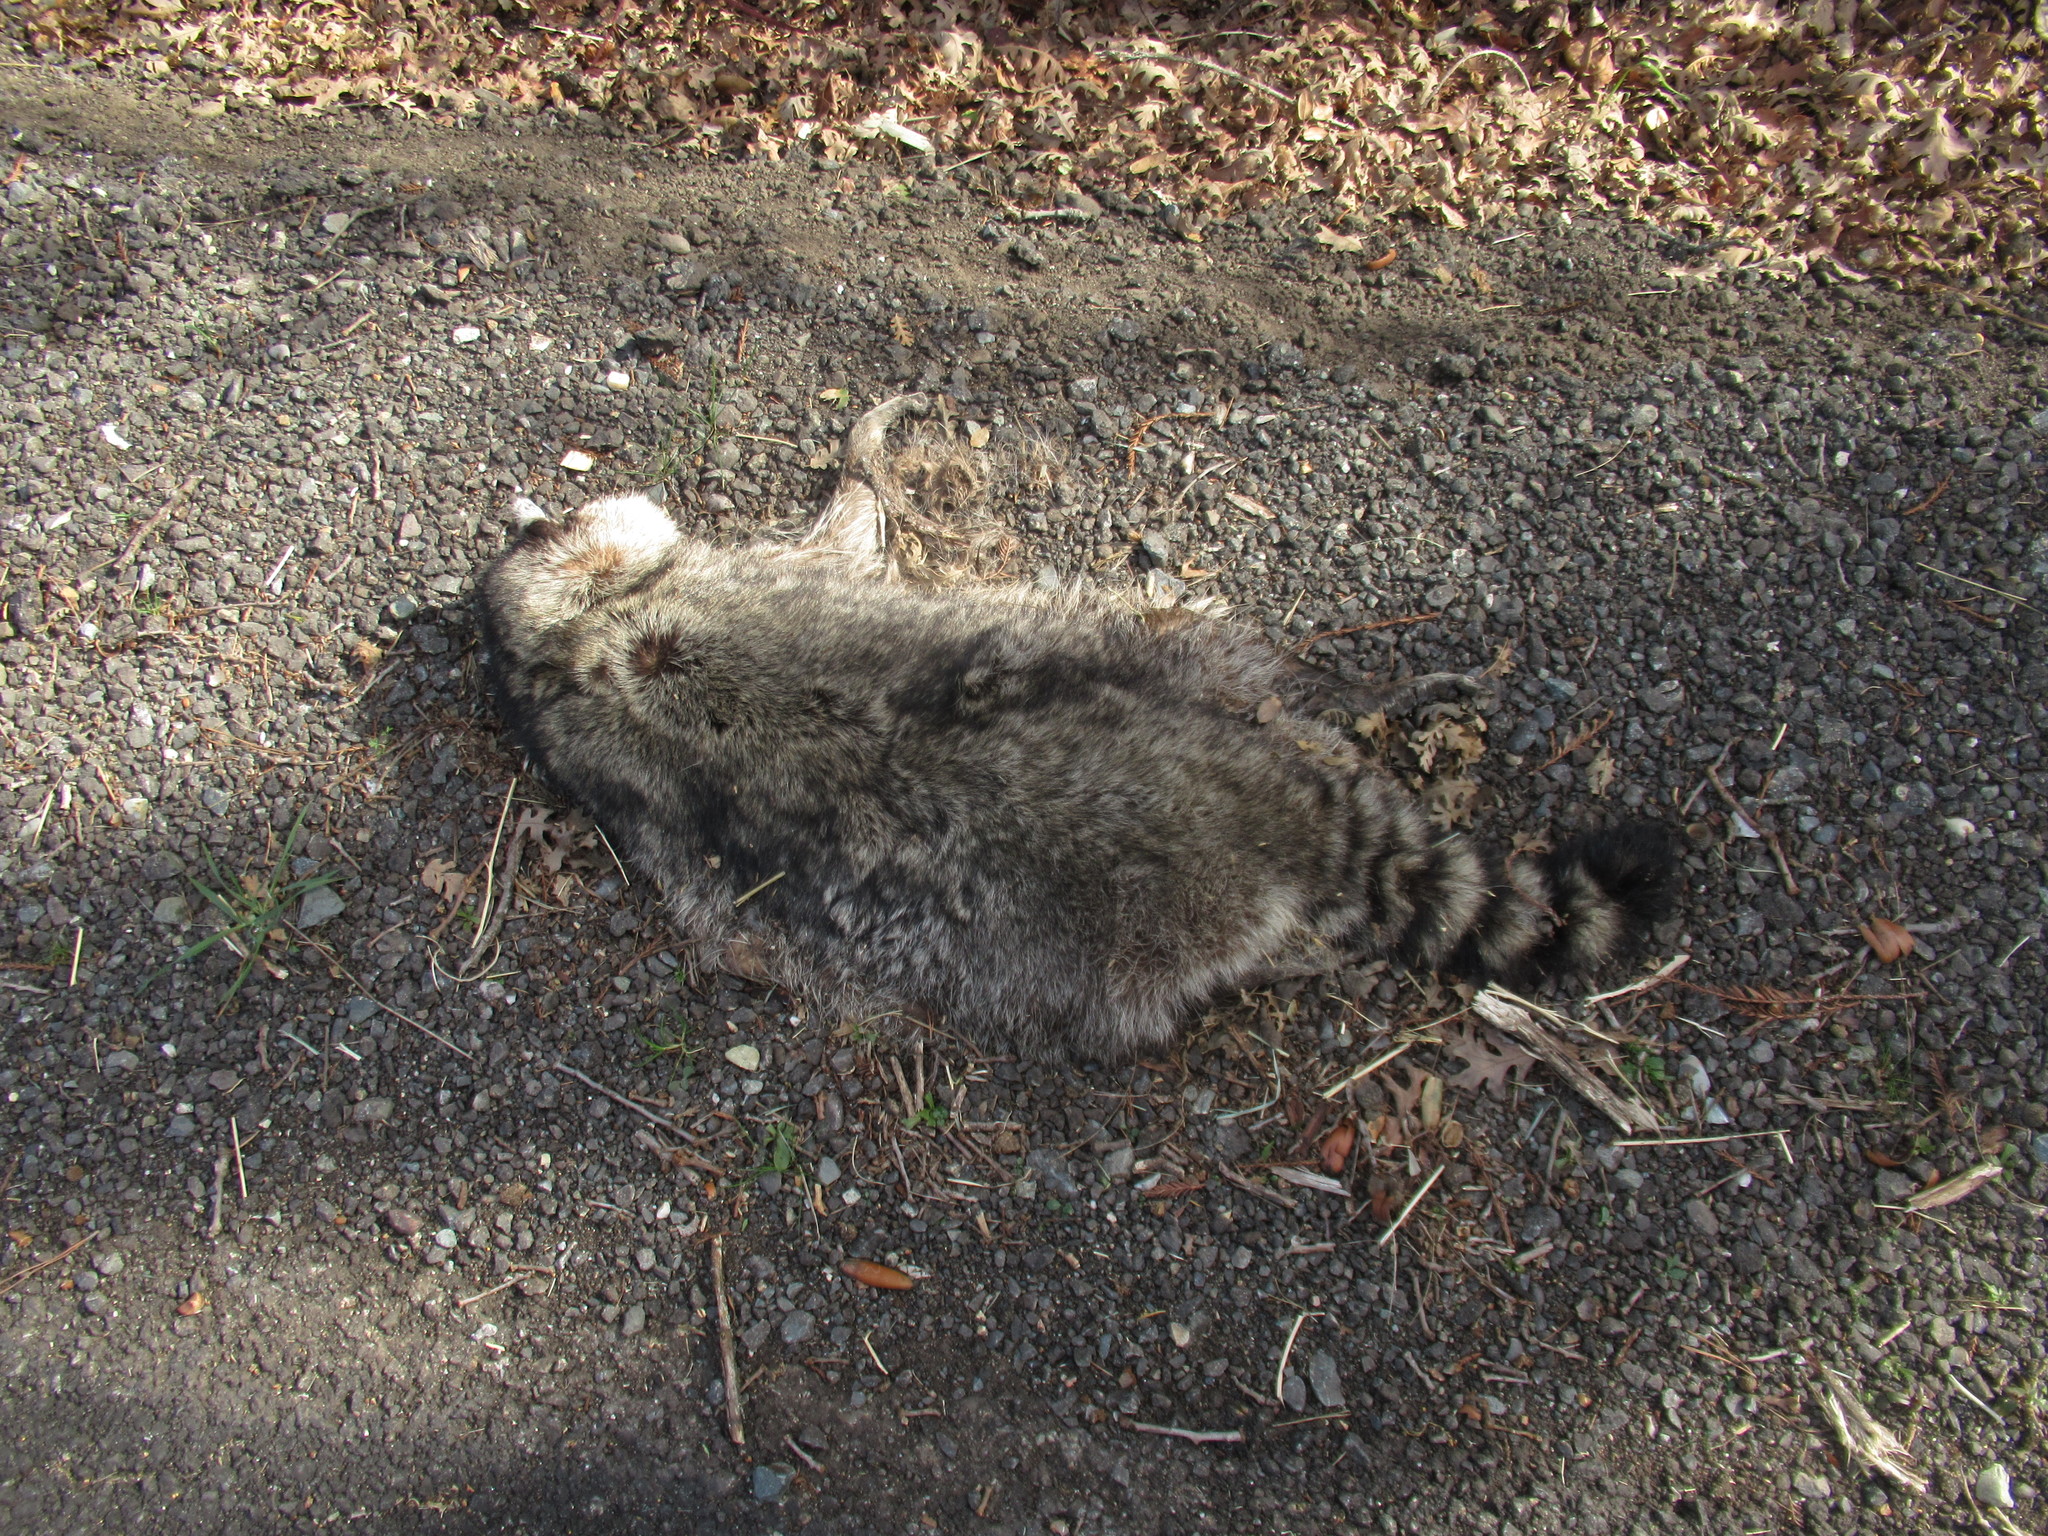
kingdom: Animalia
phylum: Chordata
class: Mammalia
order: Carnivora
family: Procyonidae
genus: Procyon
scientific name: Procyon lotor
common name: Raccoon
